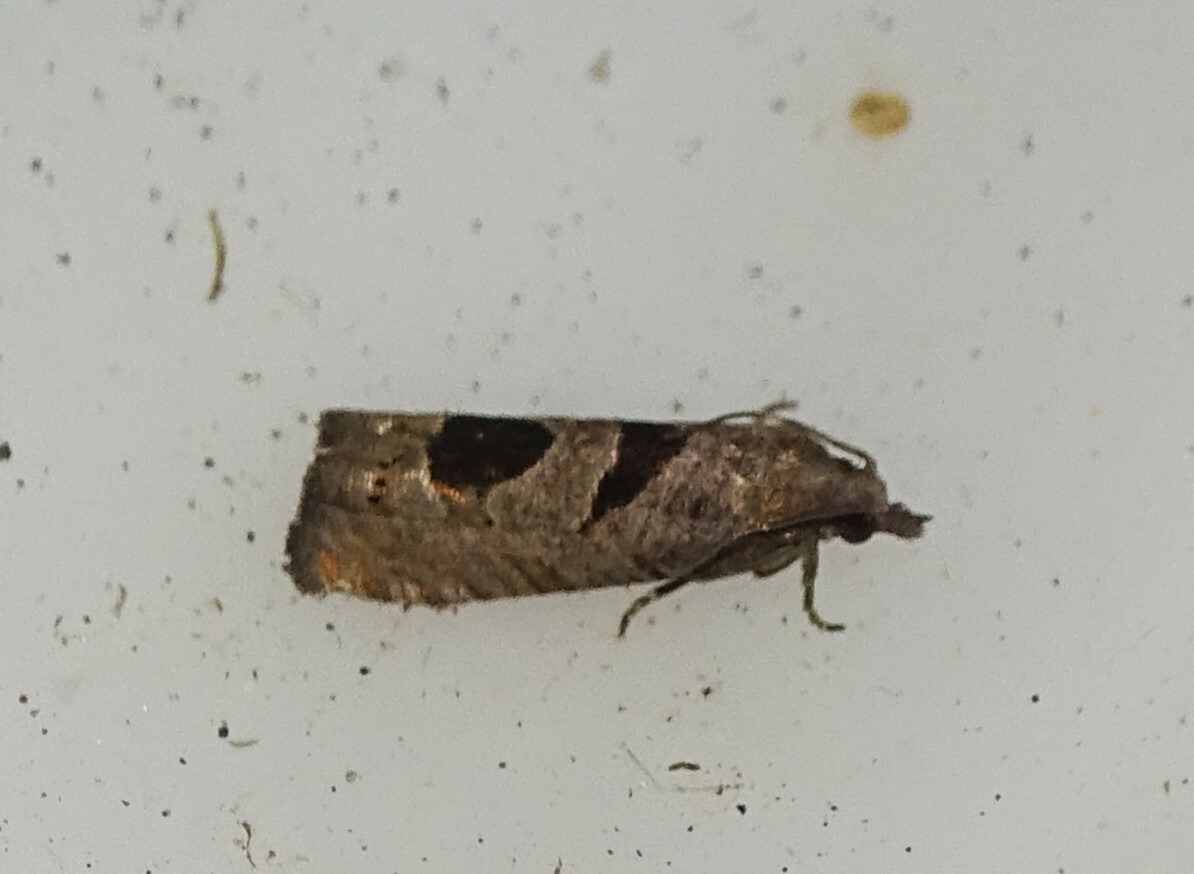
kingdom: Animalia
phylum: Arthropoda
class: Insecta
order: Lepidoptera
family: Tortricidae
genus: Pelochrista
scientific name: Pelochrista dorsisignatana
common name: Triangle-backed pelochrista moth
